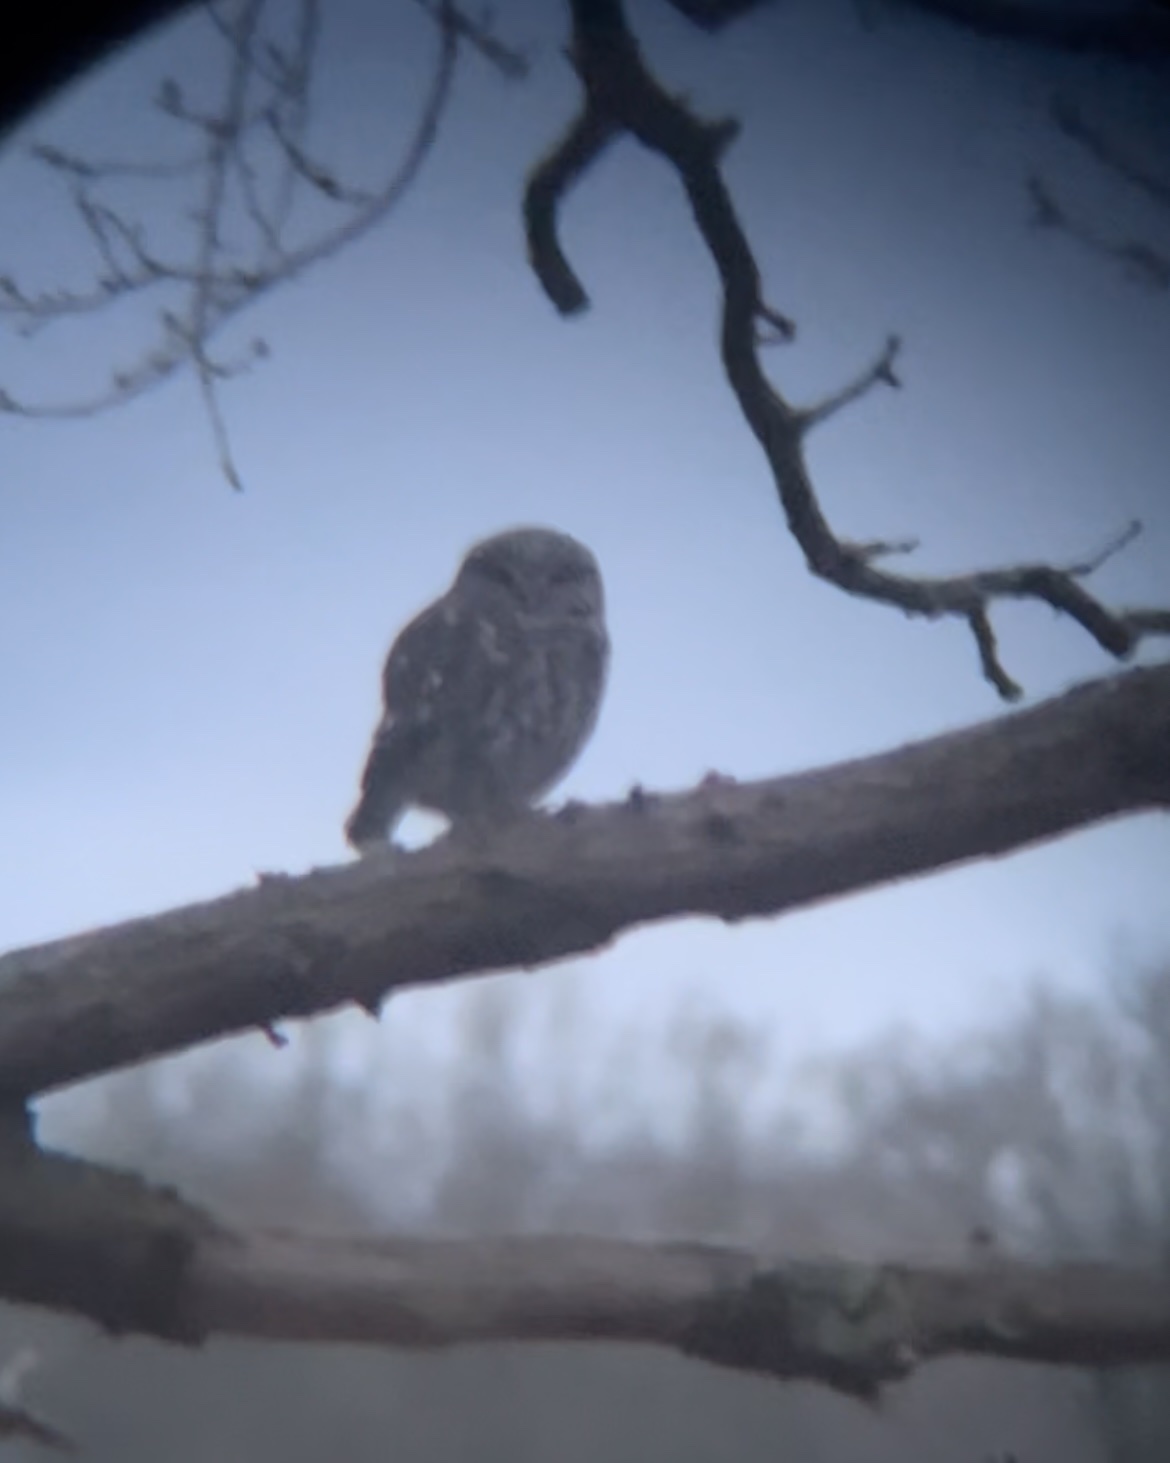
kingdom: Animalia
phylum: Chordata
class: Aves
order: Strigiformes
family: Strigidae
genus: Athene
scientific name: Athene noctua
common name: Little owl
